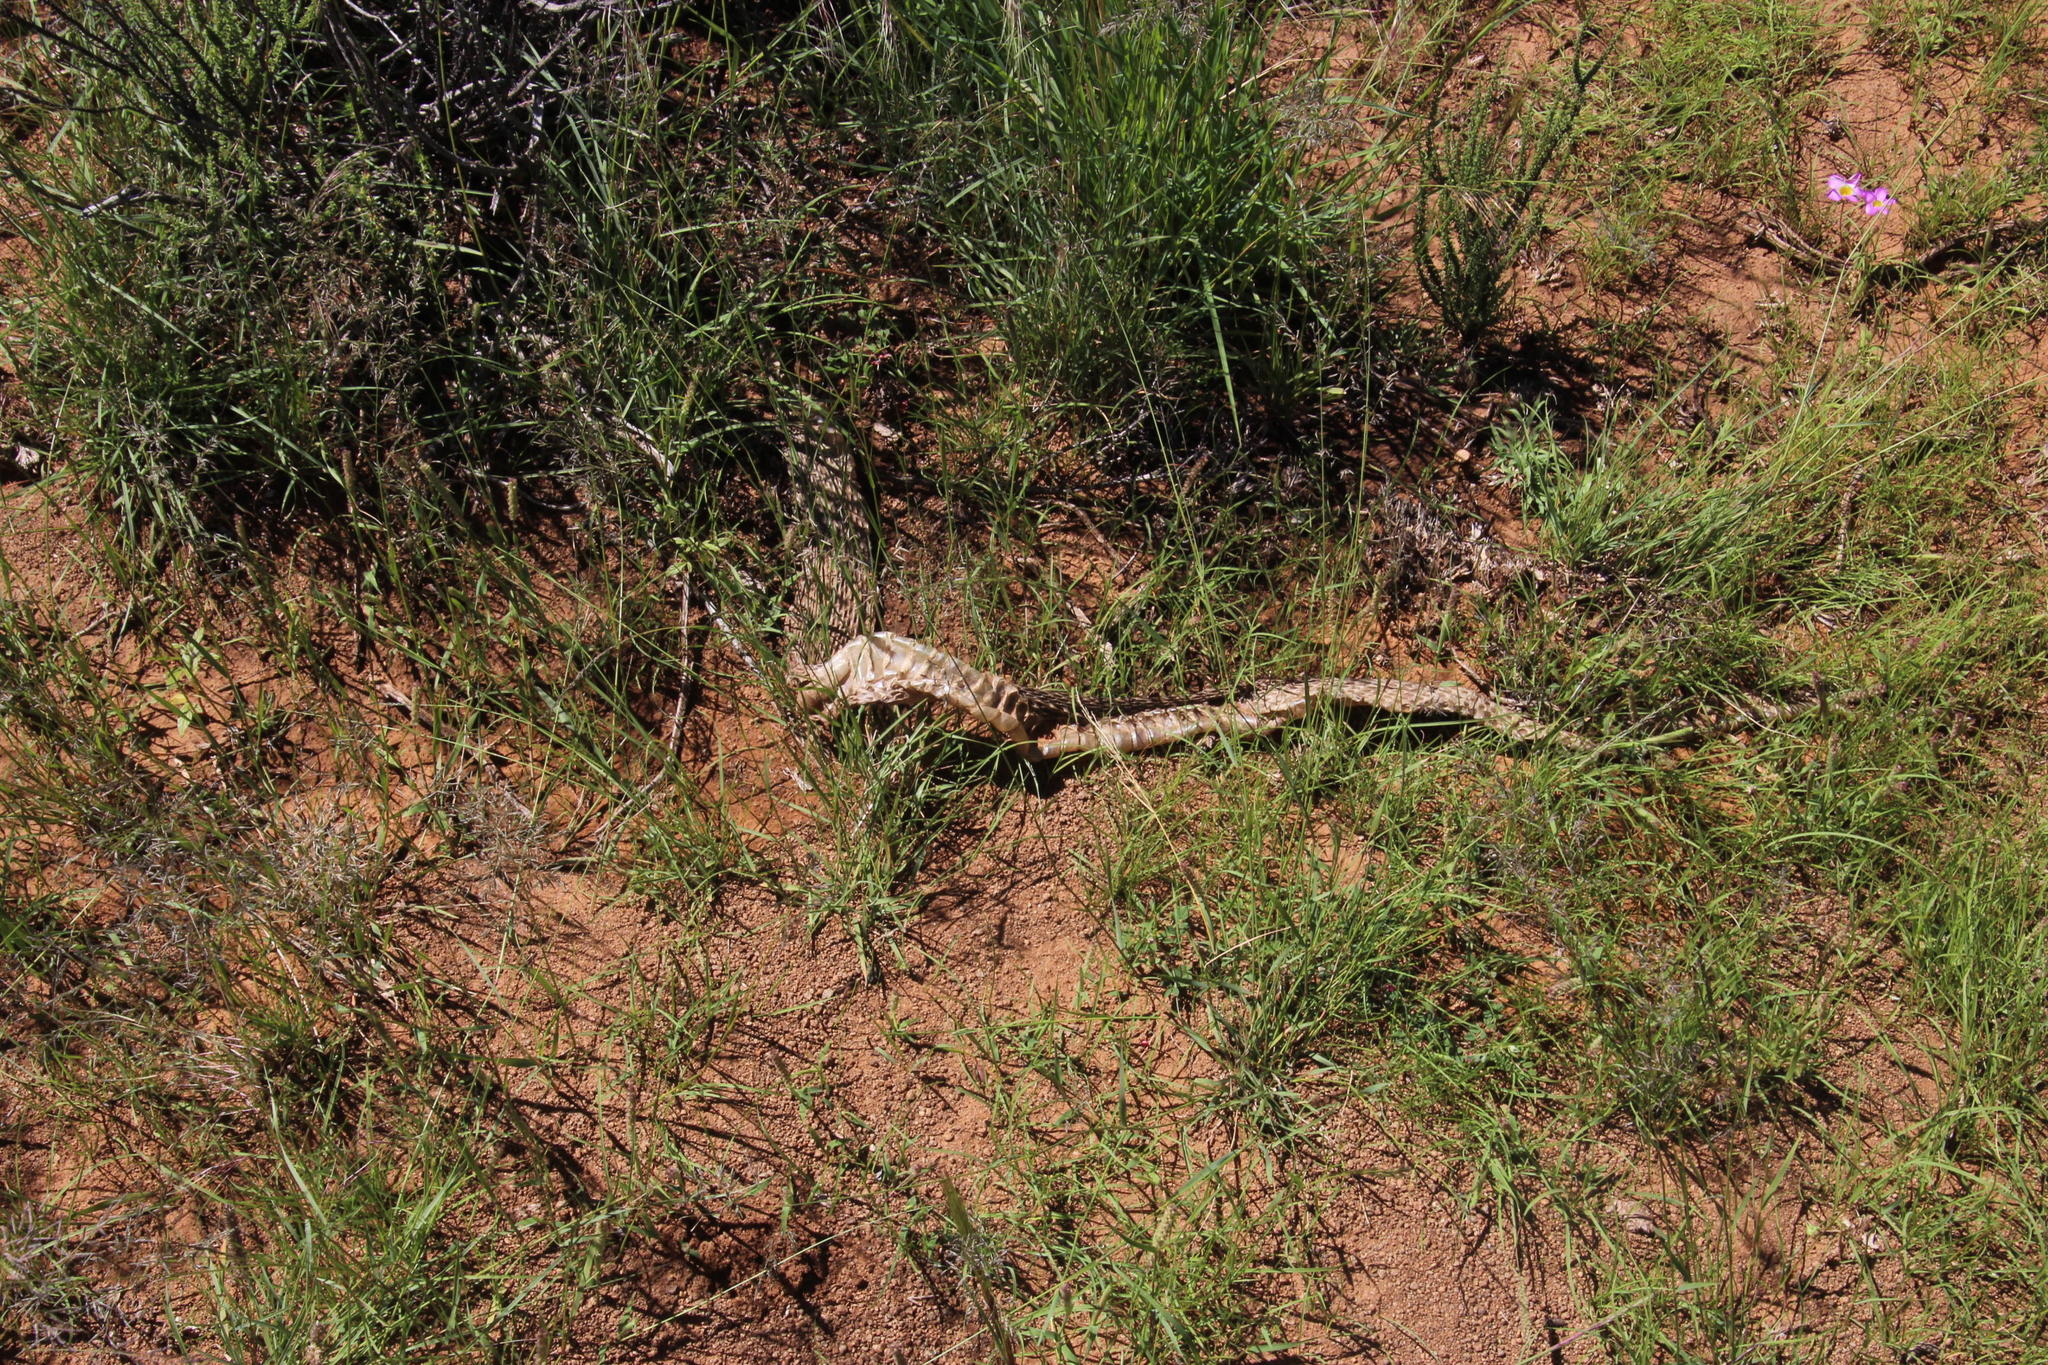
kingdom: Animalia
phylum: Chordata
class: Squamata
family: Viperidae
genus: Bitis
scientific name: Bitis arietans
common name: Puff adder
